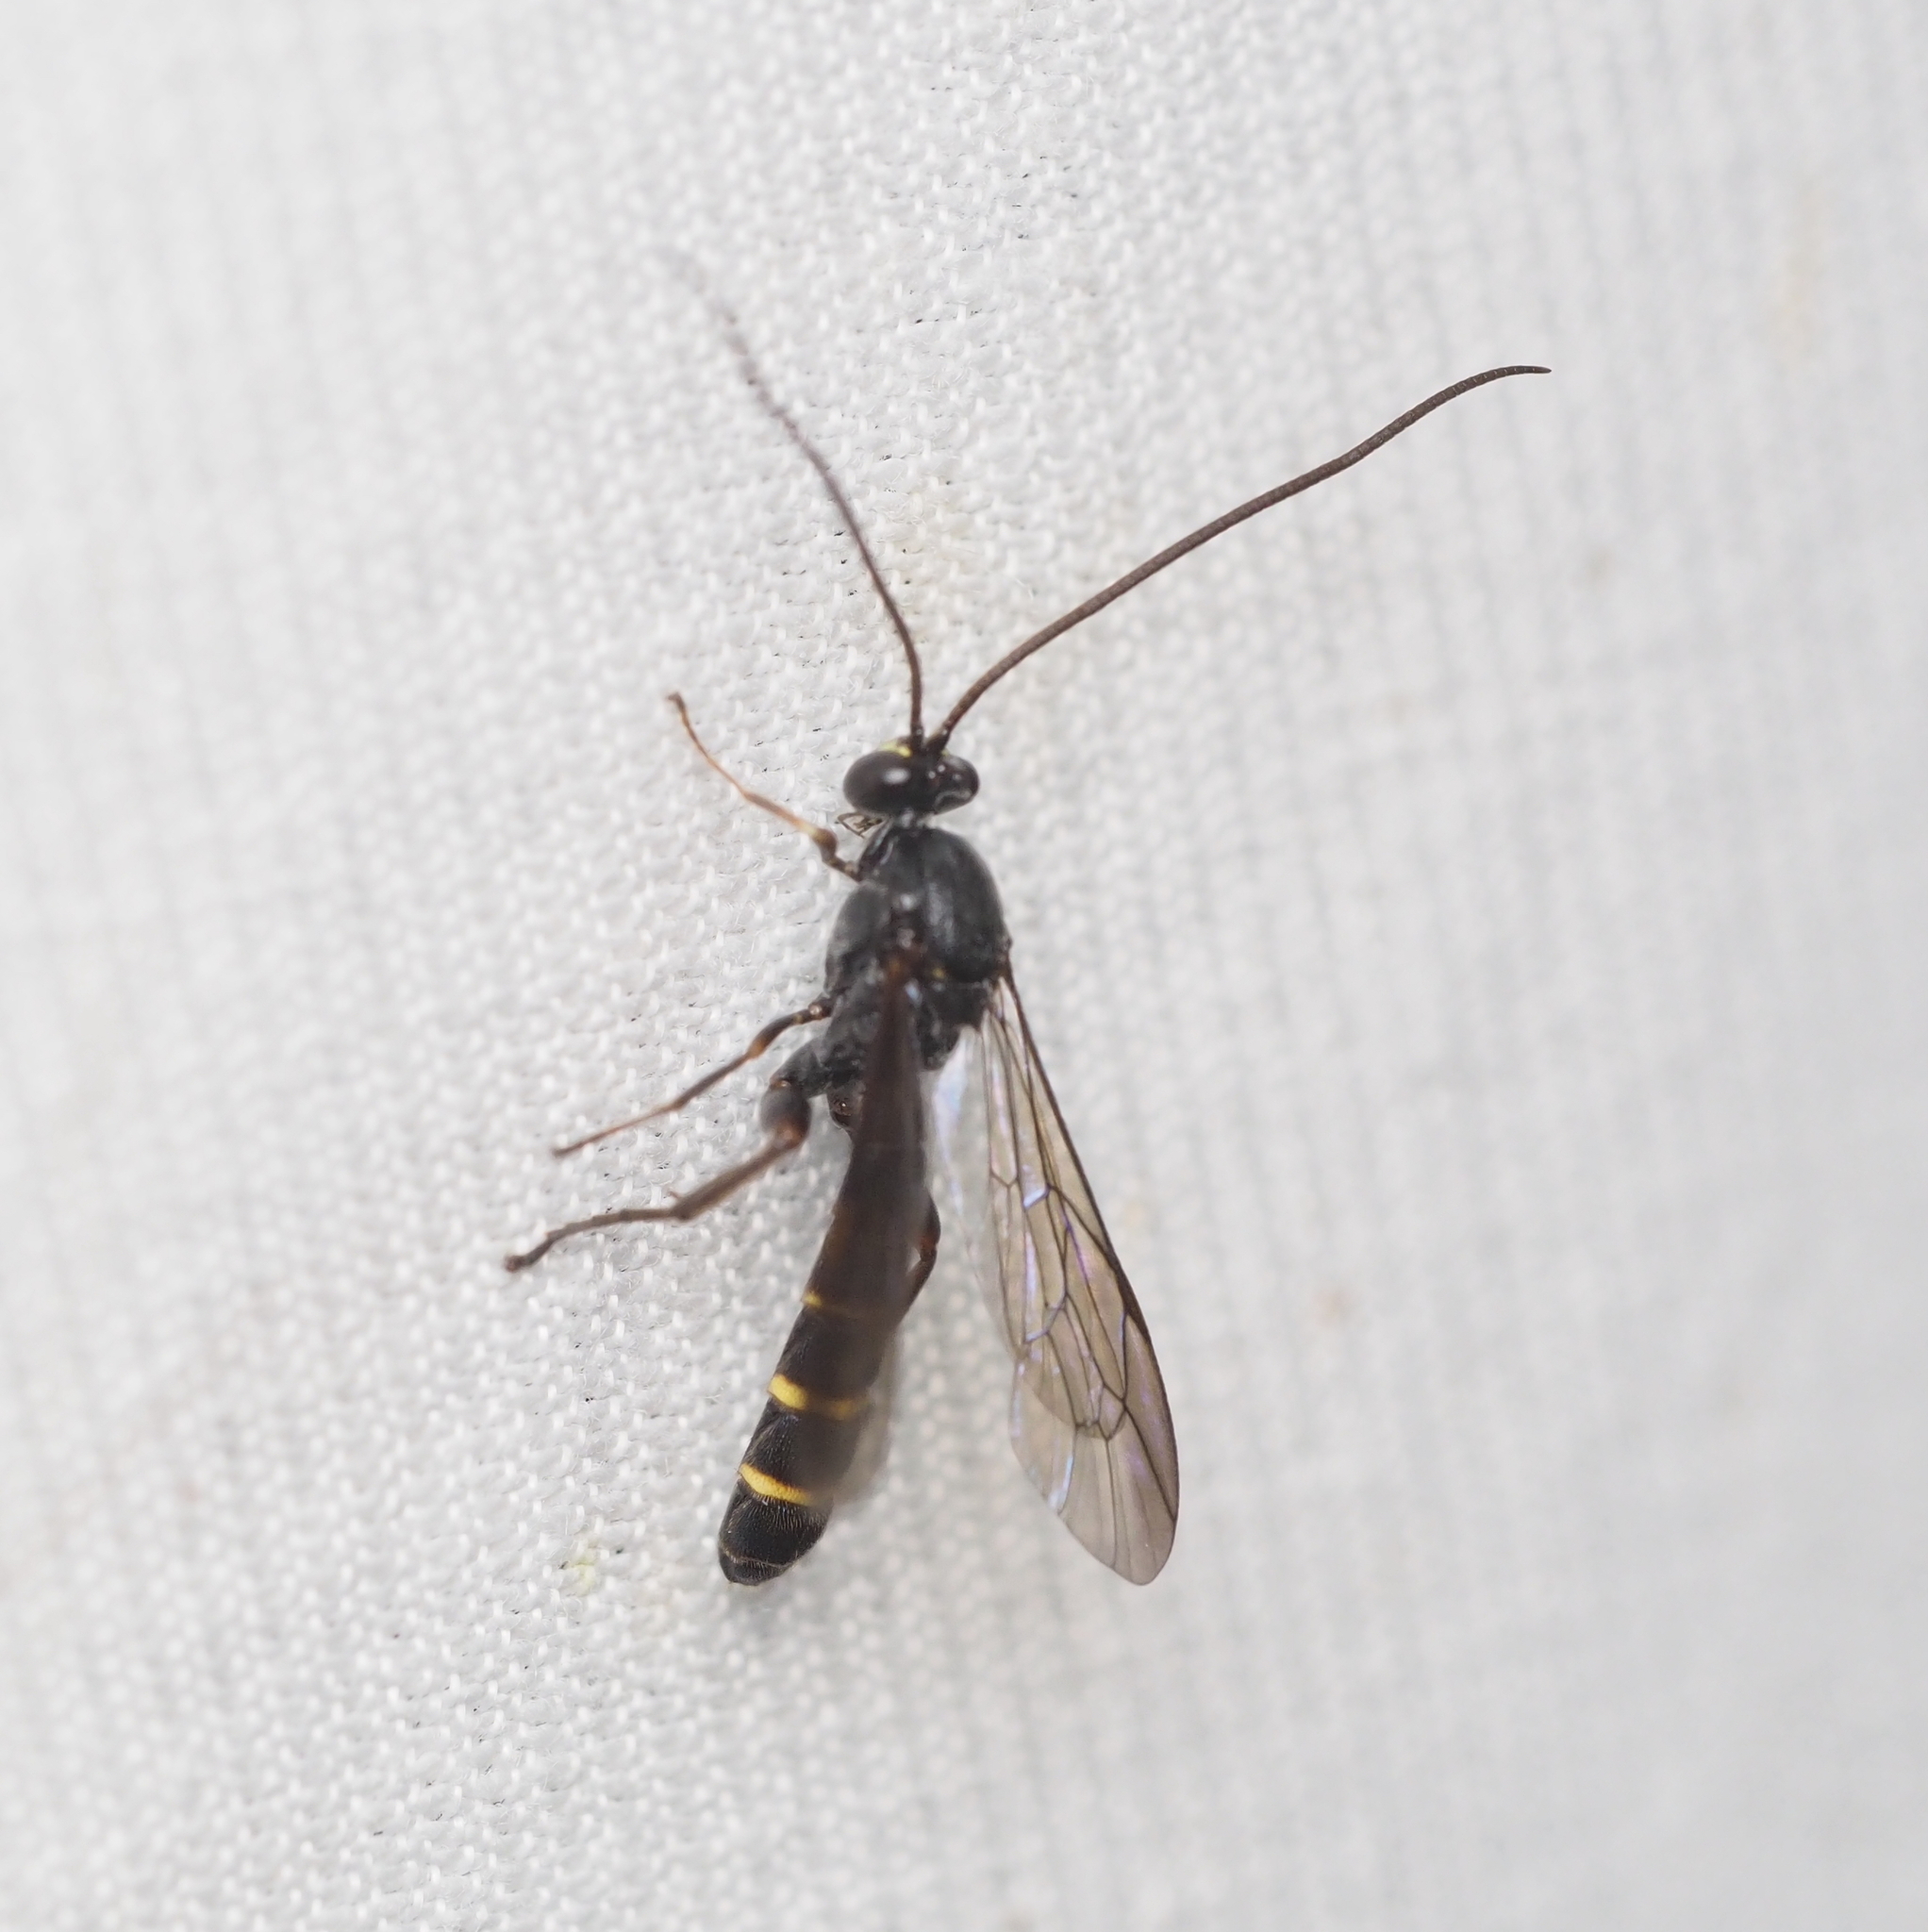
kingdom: Animalia
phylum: Arthropoda
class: Insecta
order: Hymenoptera
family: Ichneumonidae
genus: Metopius
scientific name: Metopius fuscipennis
